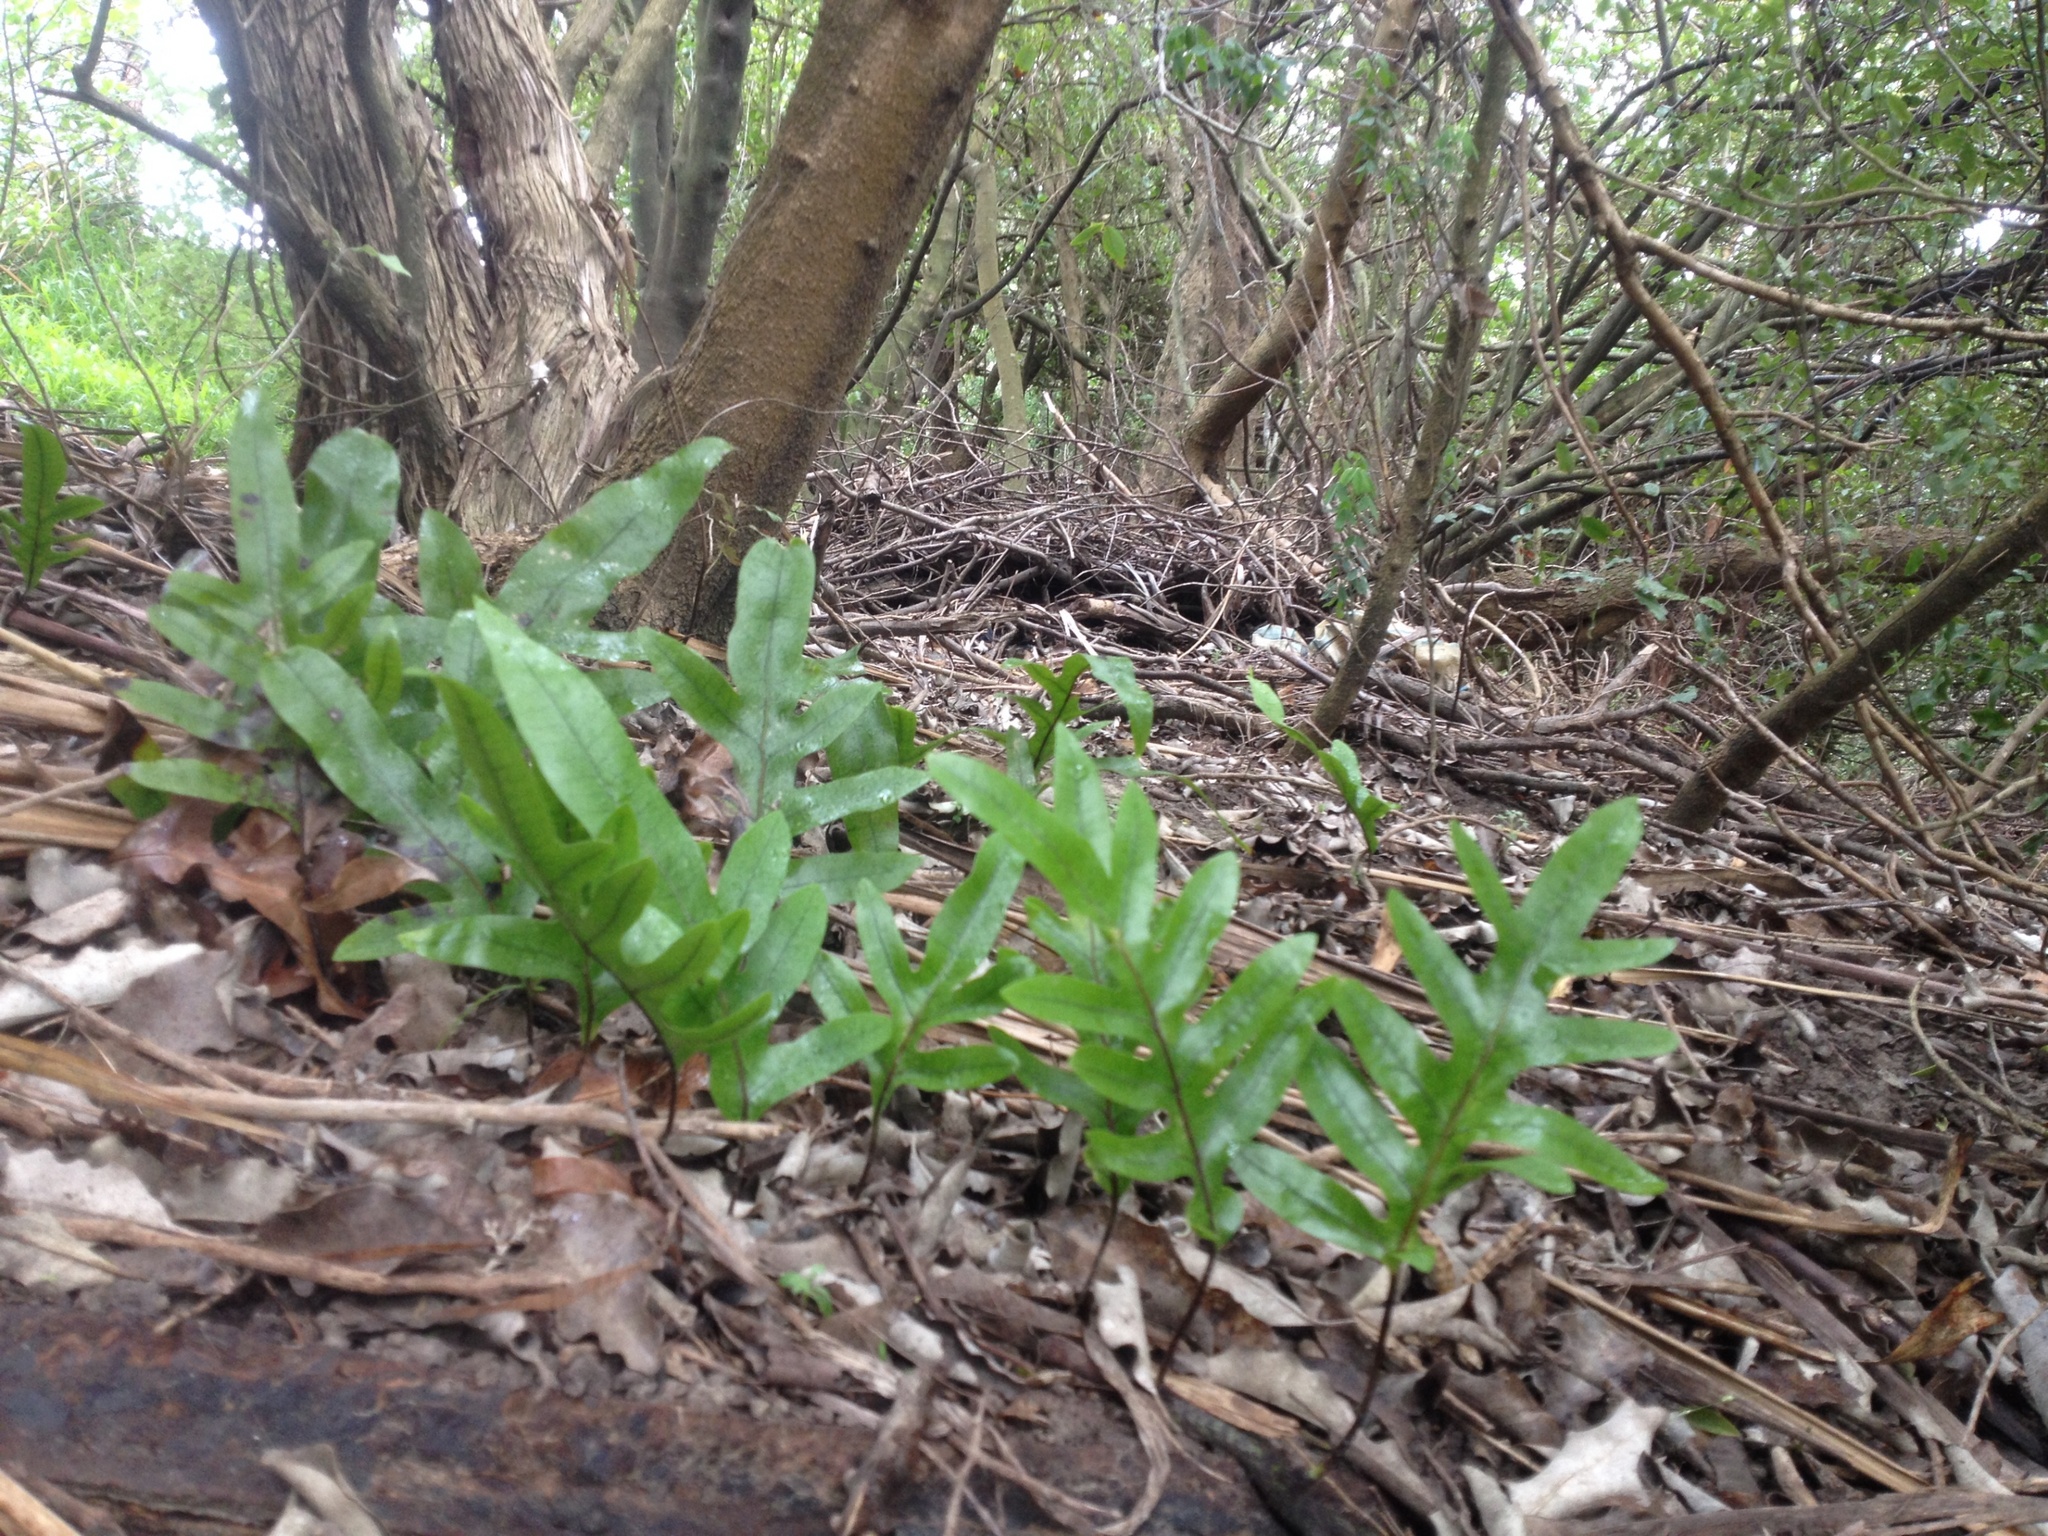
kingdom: Plantae
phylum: Tracheophyta
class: Polypodiopsida
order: Polypodiales
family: Polypodiaceae
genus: Lecanopteris
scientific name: Lecanopteris pustulata
